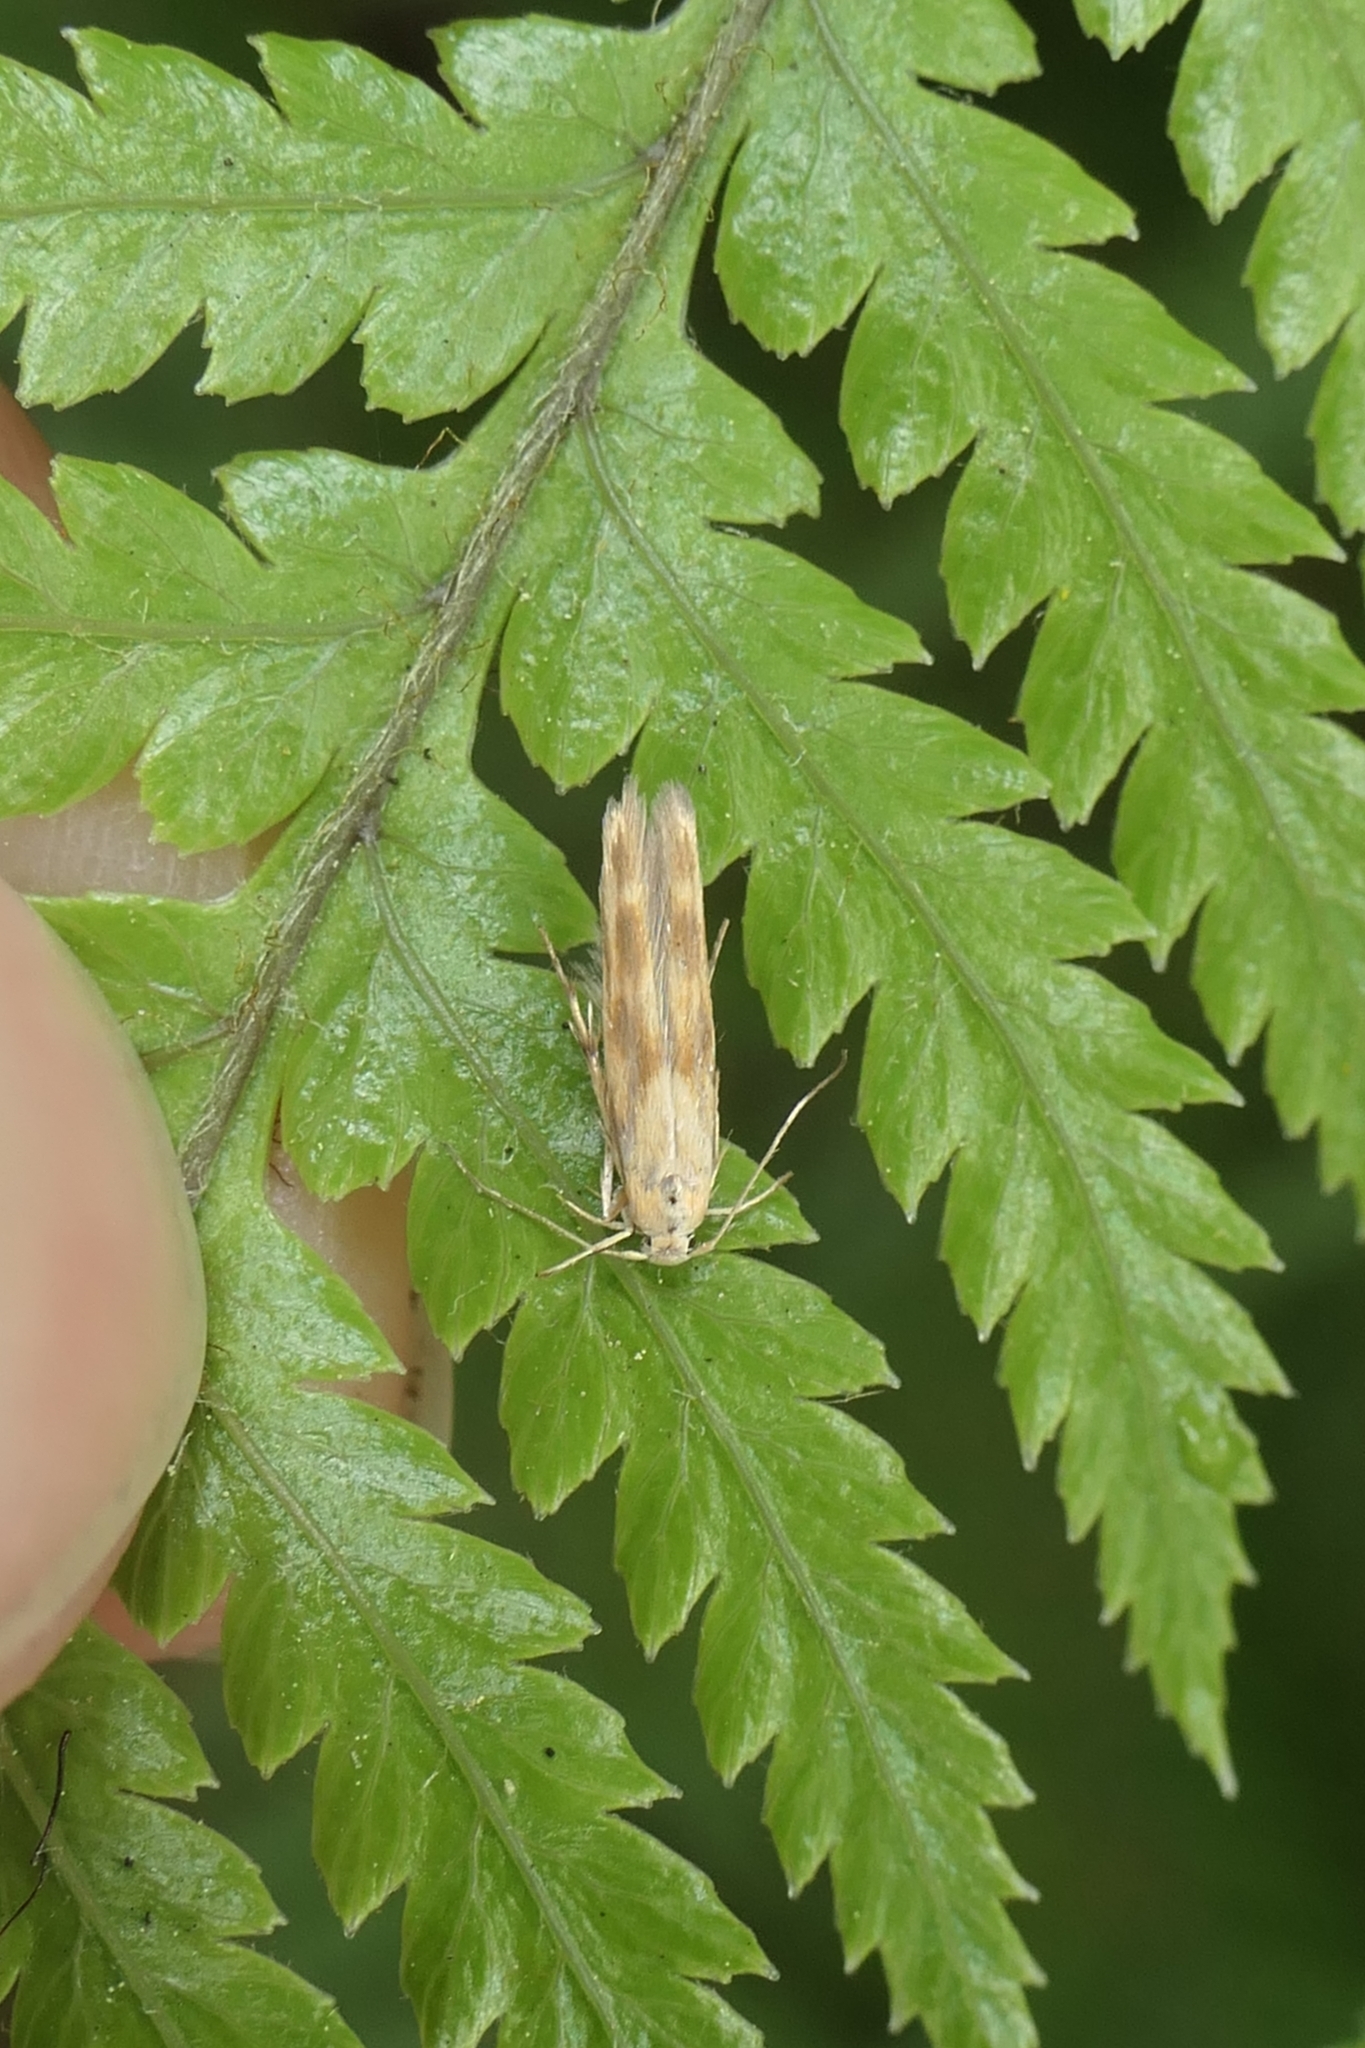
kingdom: Animalia
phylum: Arthropoda
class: Insecta
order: Lepidoptera
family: Stathmopodidae
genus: Stathmopoda
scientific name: Stathmopoda horticola
